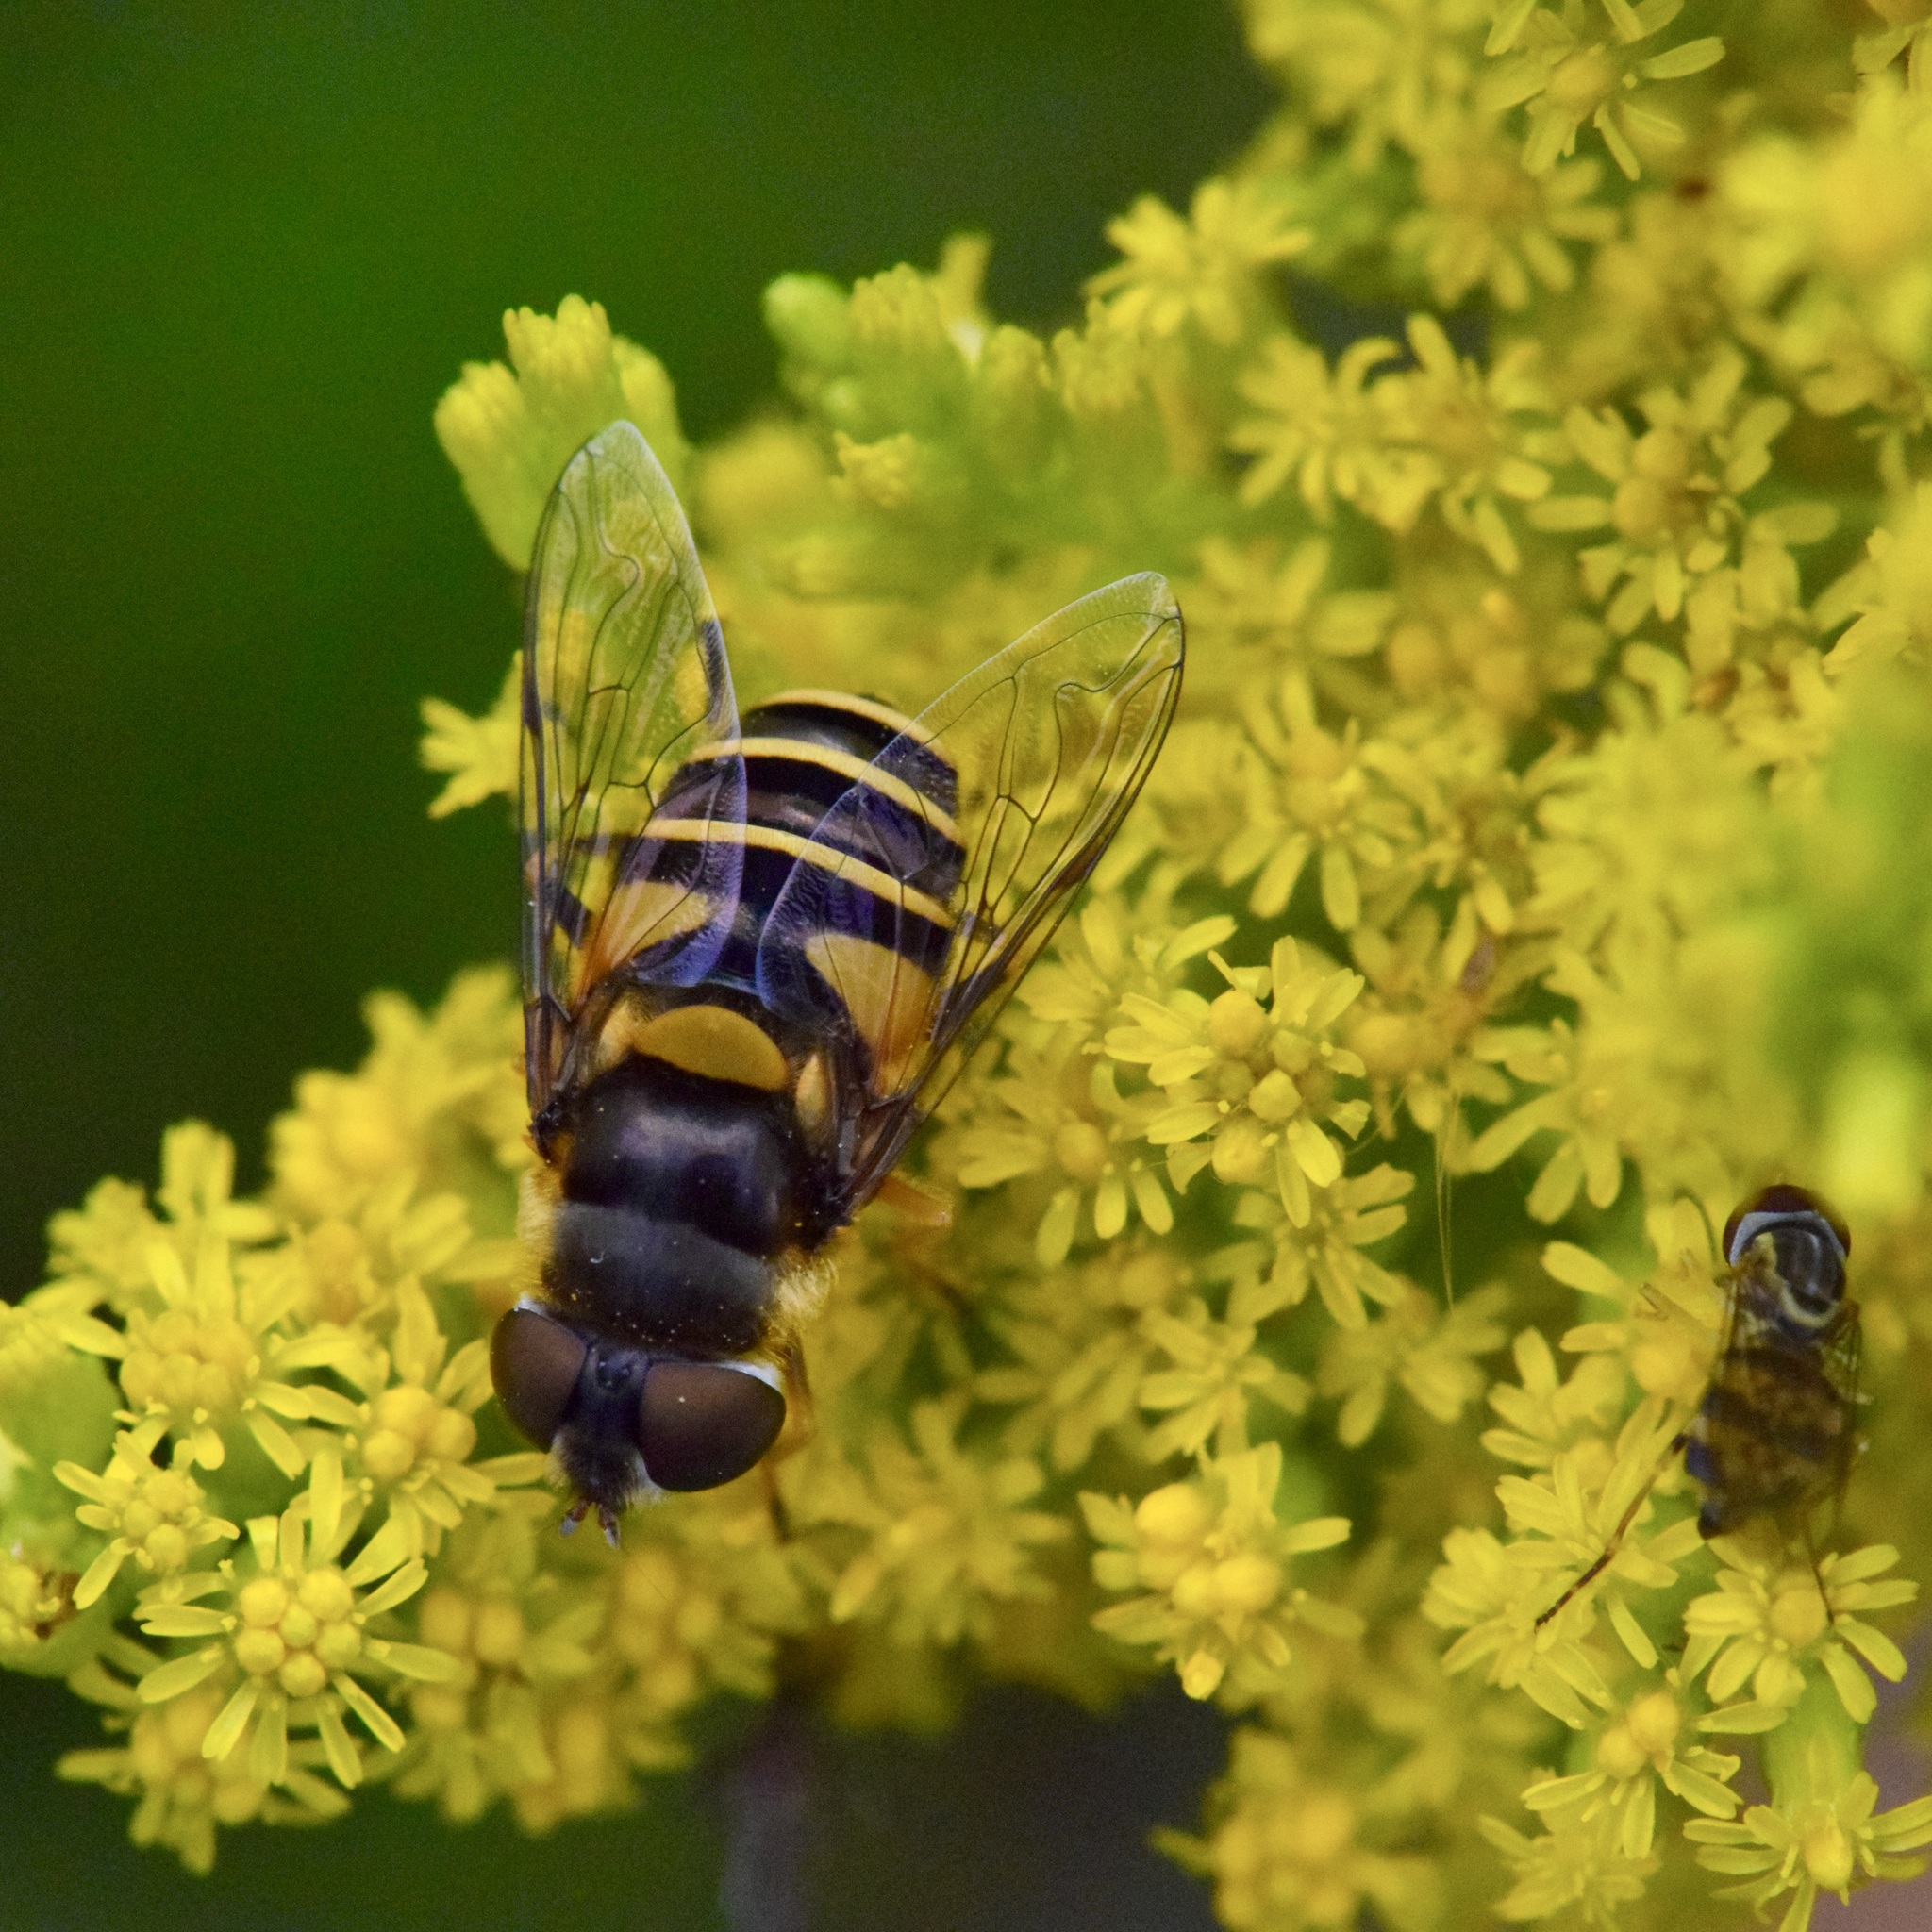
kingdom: Animalia
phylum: Arthropoda
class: Insecta
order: Diptera
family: Syrphidae
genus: Eristalis
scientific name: Eristalis transversa
